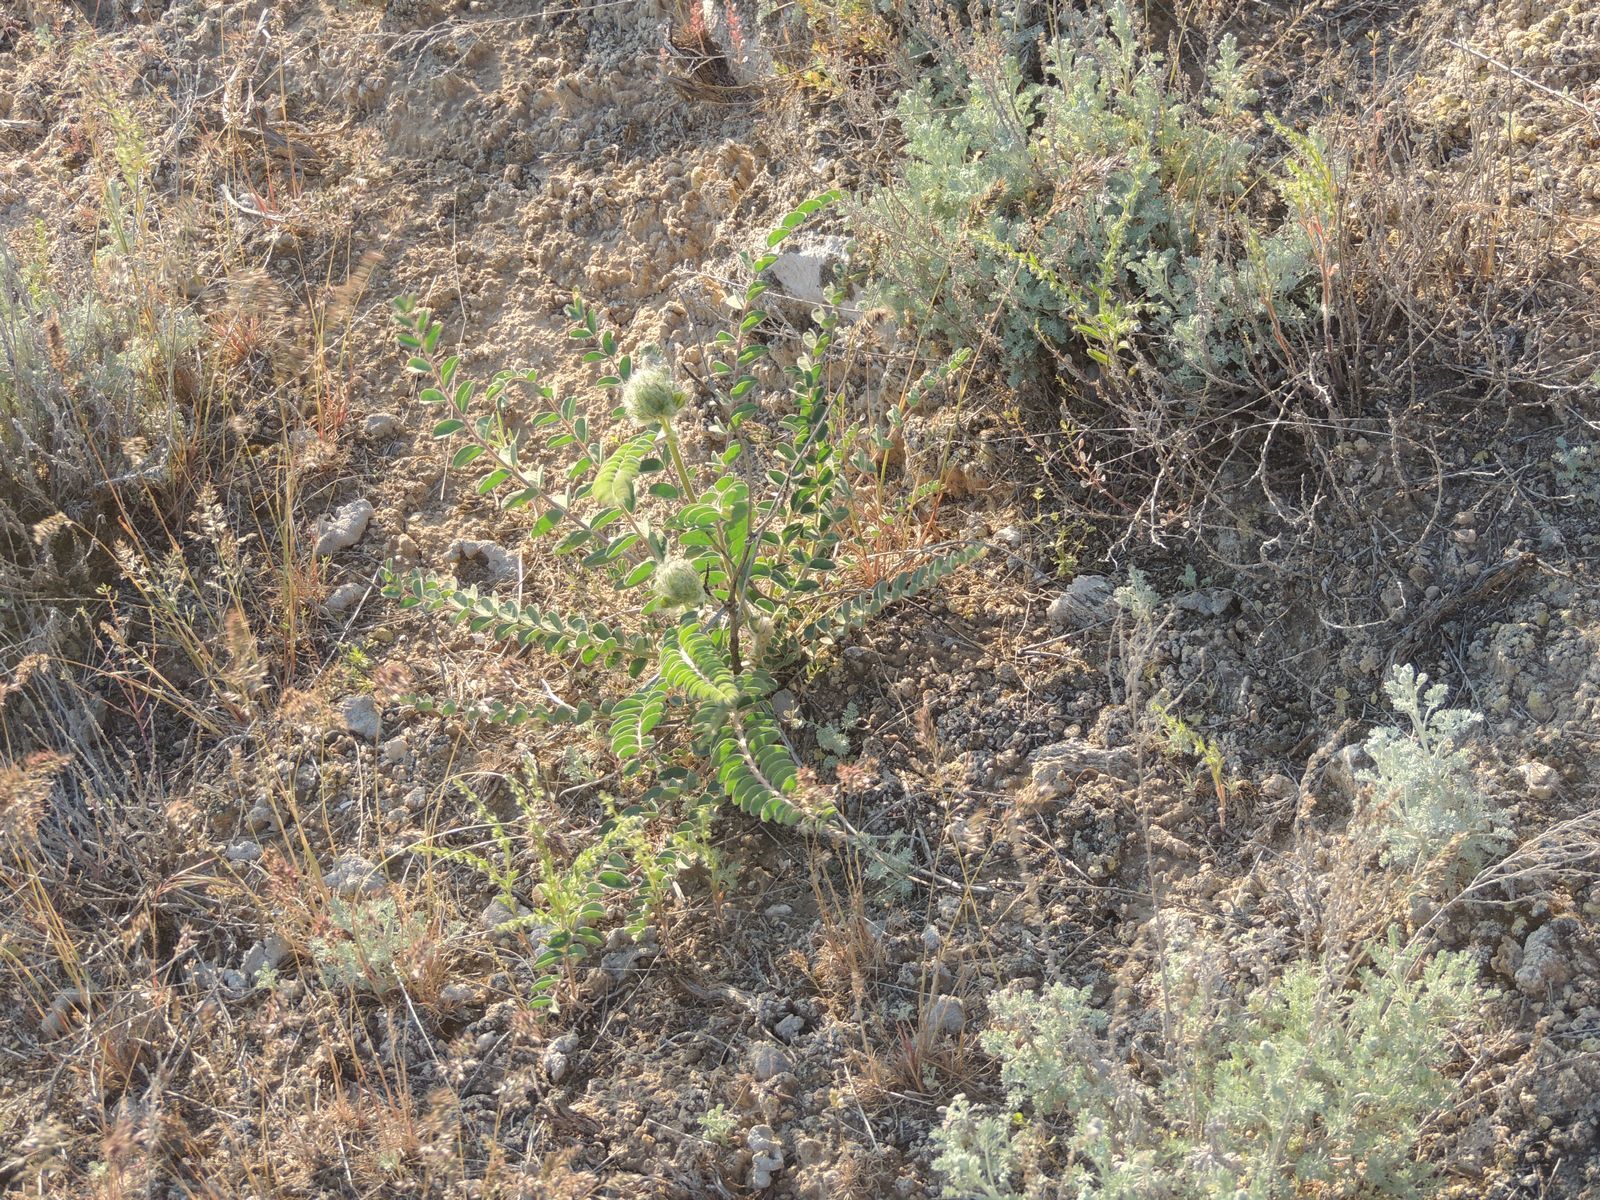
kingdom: Plantae
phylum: Tracheophyta
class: Magnoliopsida
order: Fabales
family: Fabaceae
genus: Astragalus
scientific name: Astragalus vulpinus
